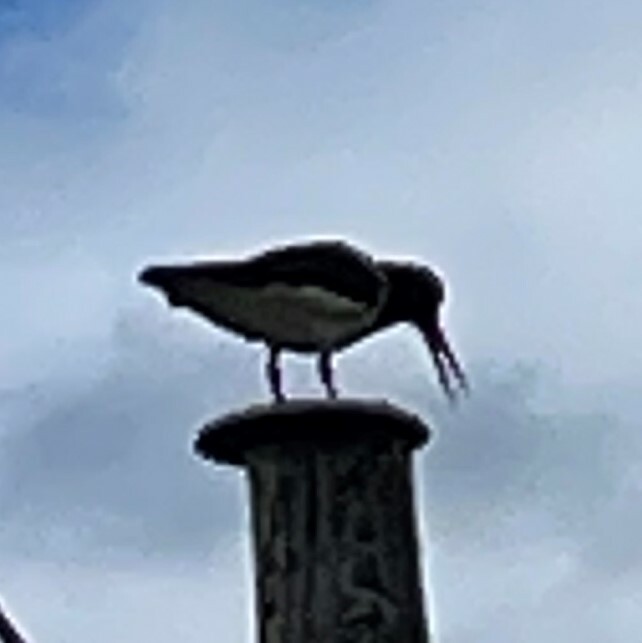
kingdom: Animalia
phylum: Chordata
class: Aves
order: Charadriiformes
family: Haematopodidae
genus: Haematopus
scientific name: Haematopus ostralegus
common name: Eurasian oystercatcher
